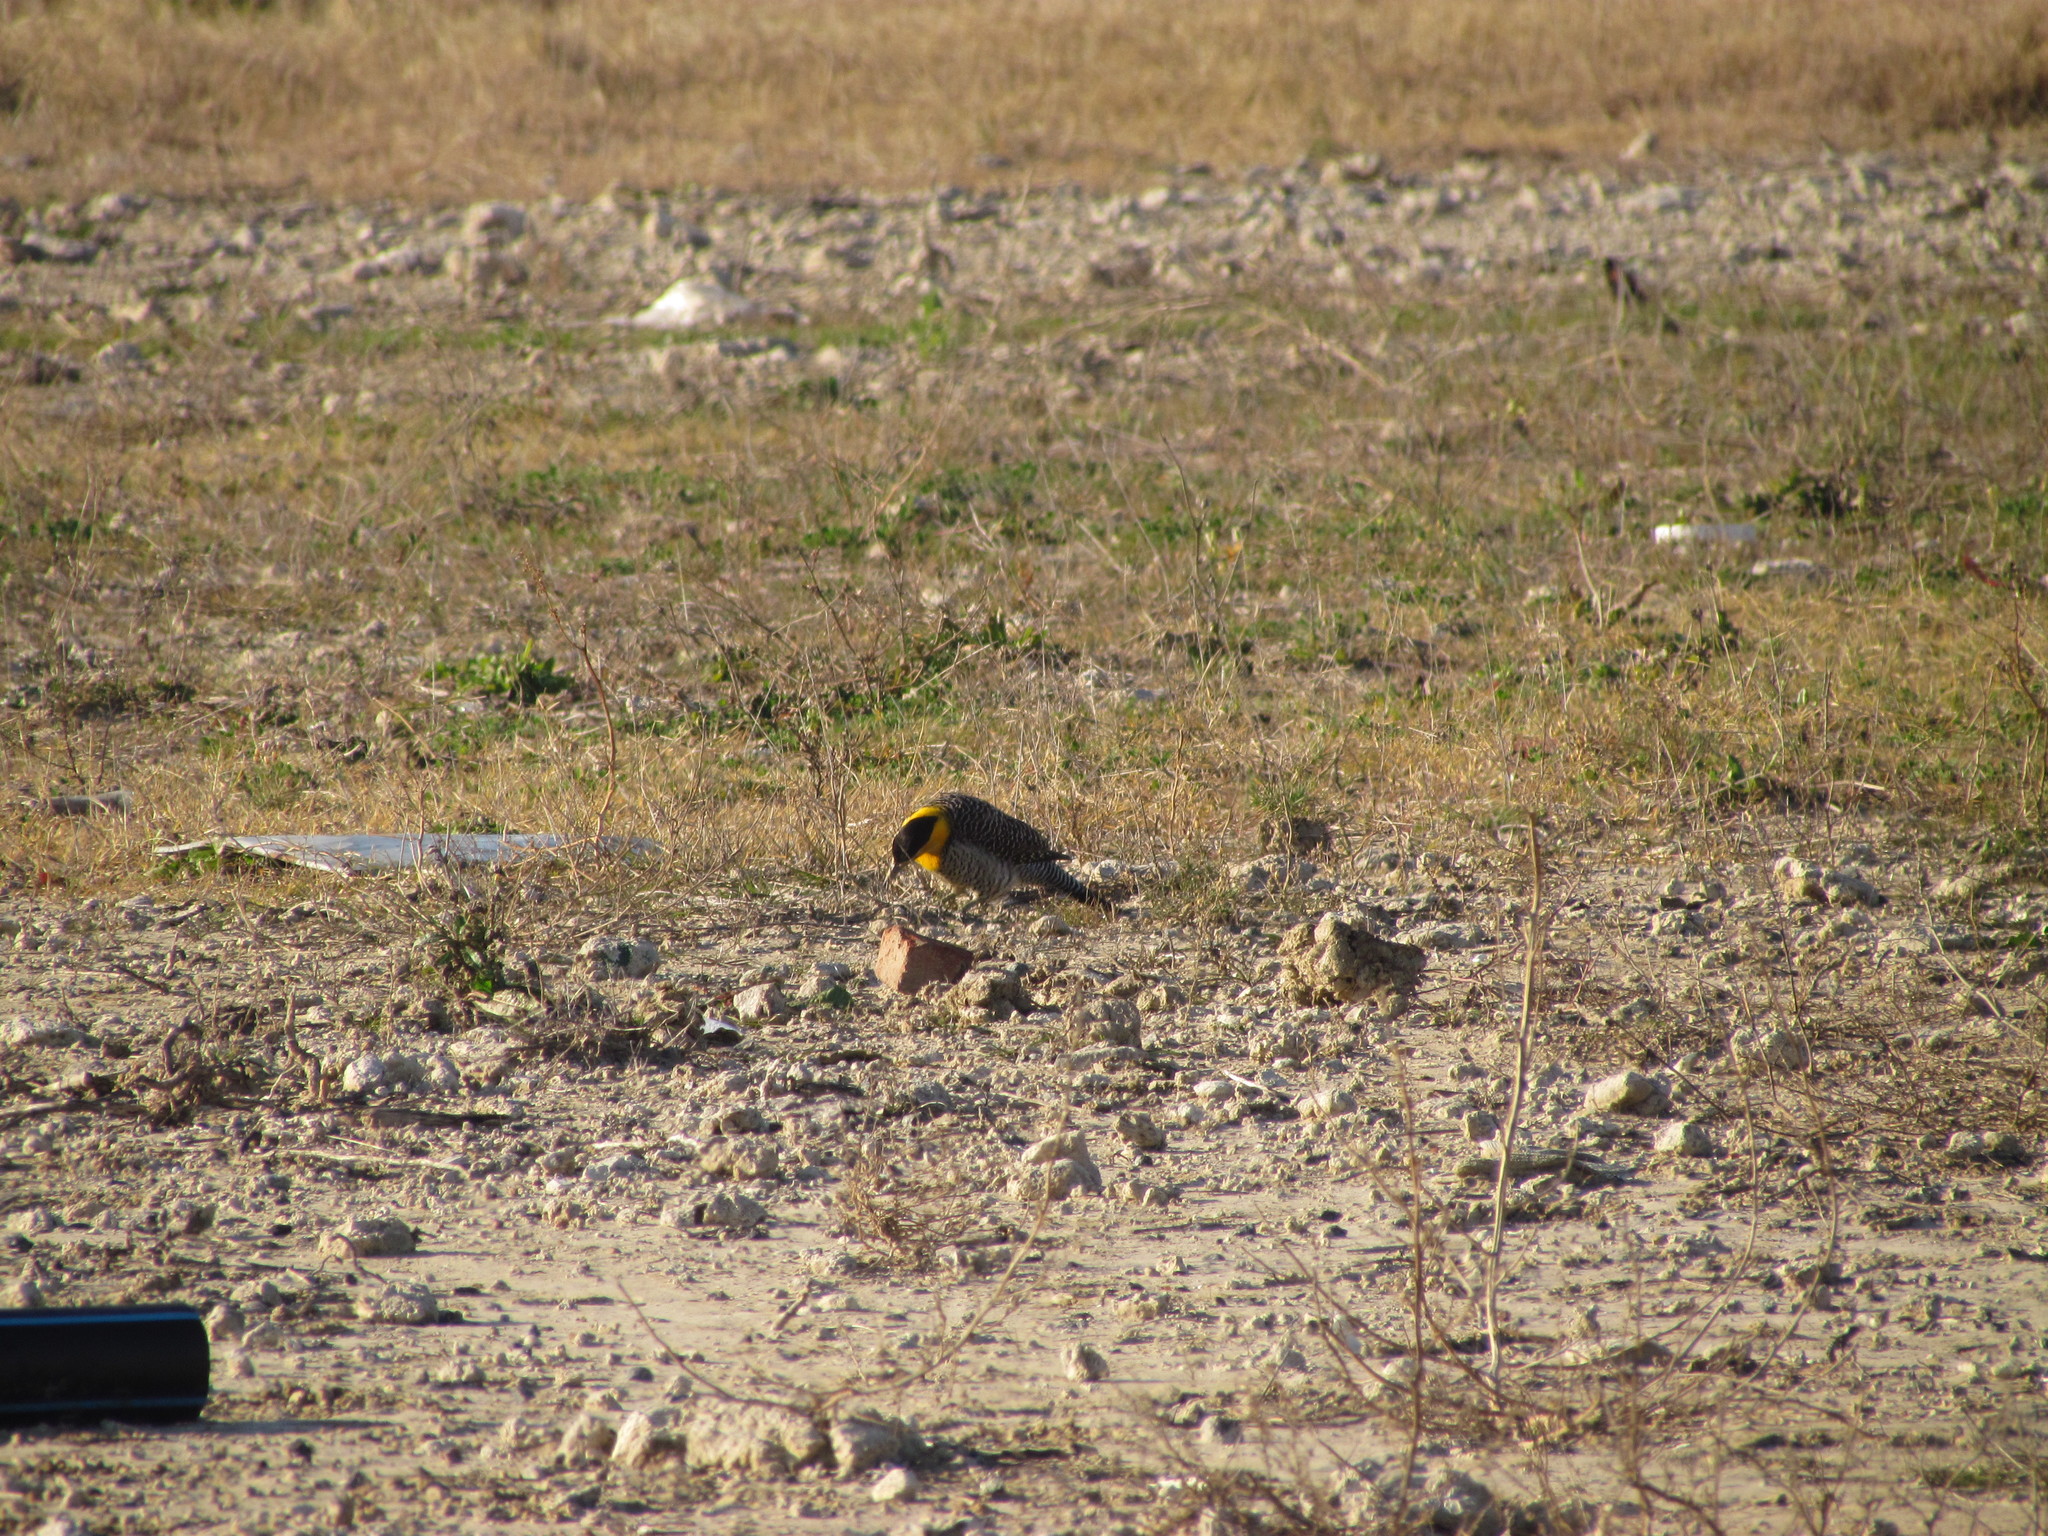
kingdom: Animalia
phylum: Chordata
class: Aves
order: Piciformes
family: Picidae
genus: Colaptes
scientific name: Colaptes campestris
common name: Campo flicker
